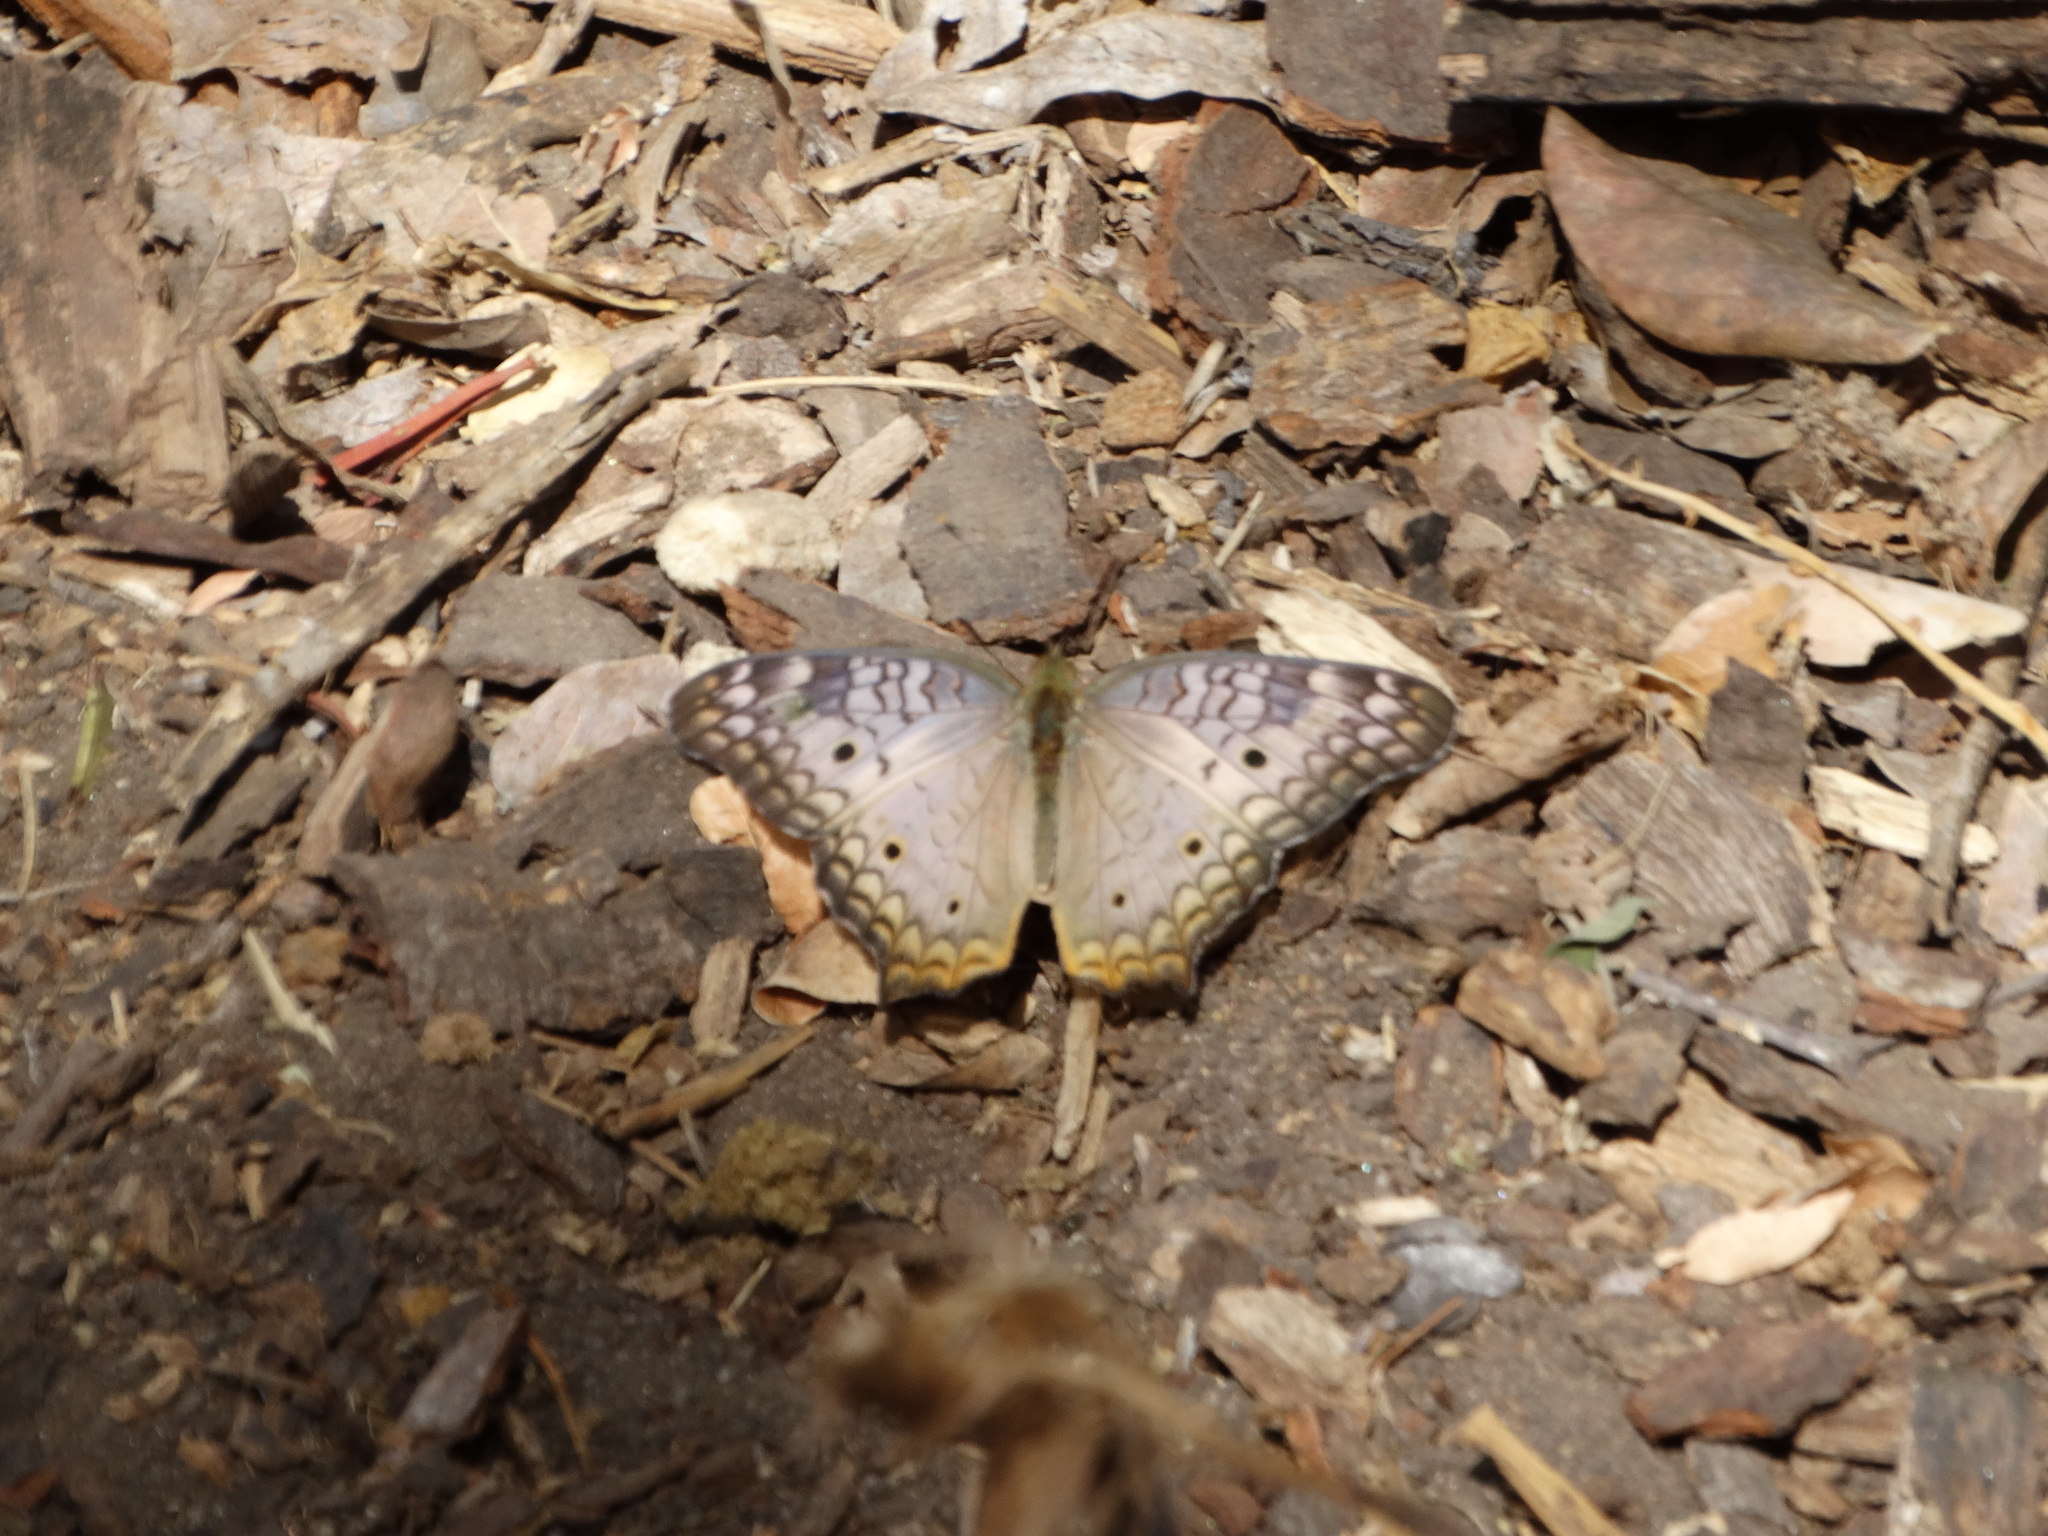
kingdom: Animalia
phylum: Arthropoda
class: Insecta
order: Lepidoptera
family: Nymphalidae
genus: Anartia
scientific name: Anartia jatrophae
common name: White peacock
